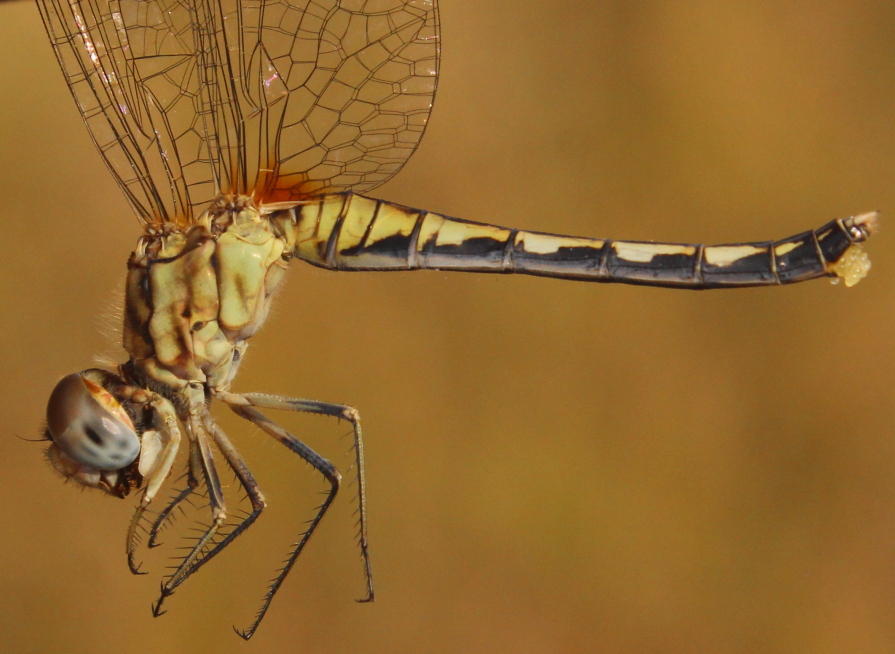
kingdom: Animalia
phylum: Arthropoda
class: Insecta
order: Odonata
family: Libellulidae
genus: Diplacodes
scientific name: Diplacodes lefebvrii
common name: Black percher
